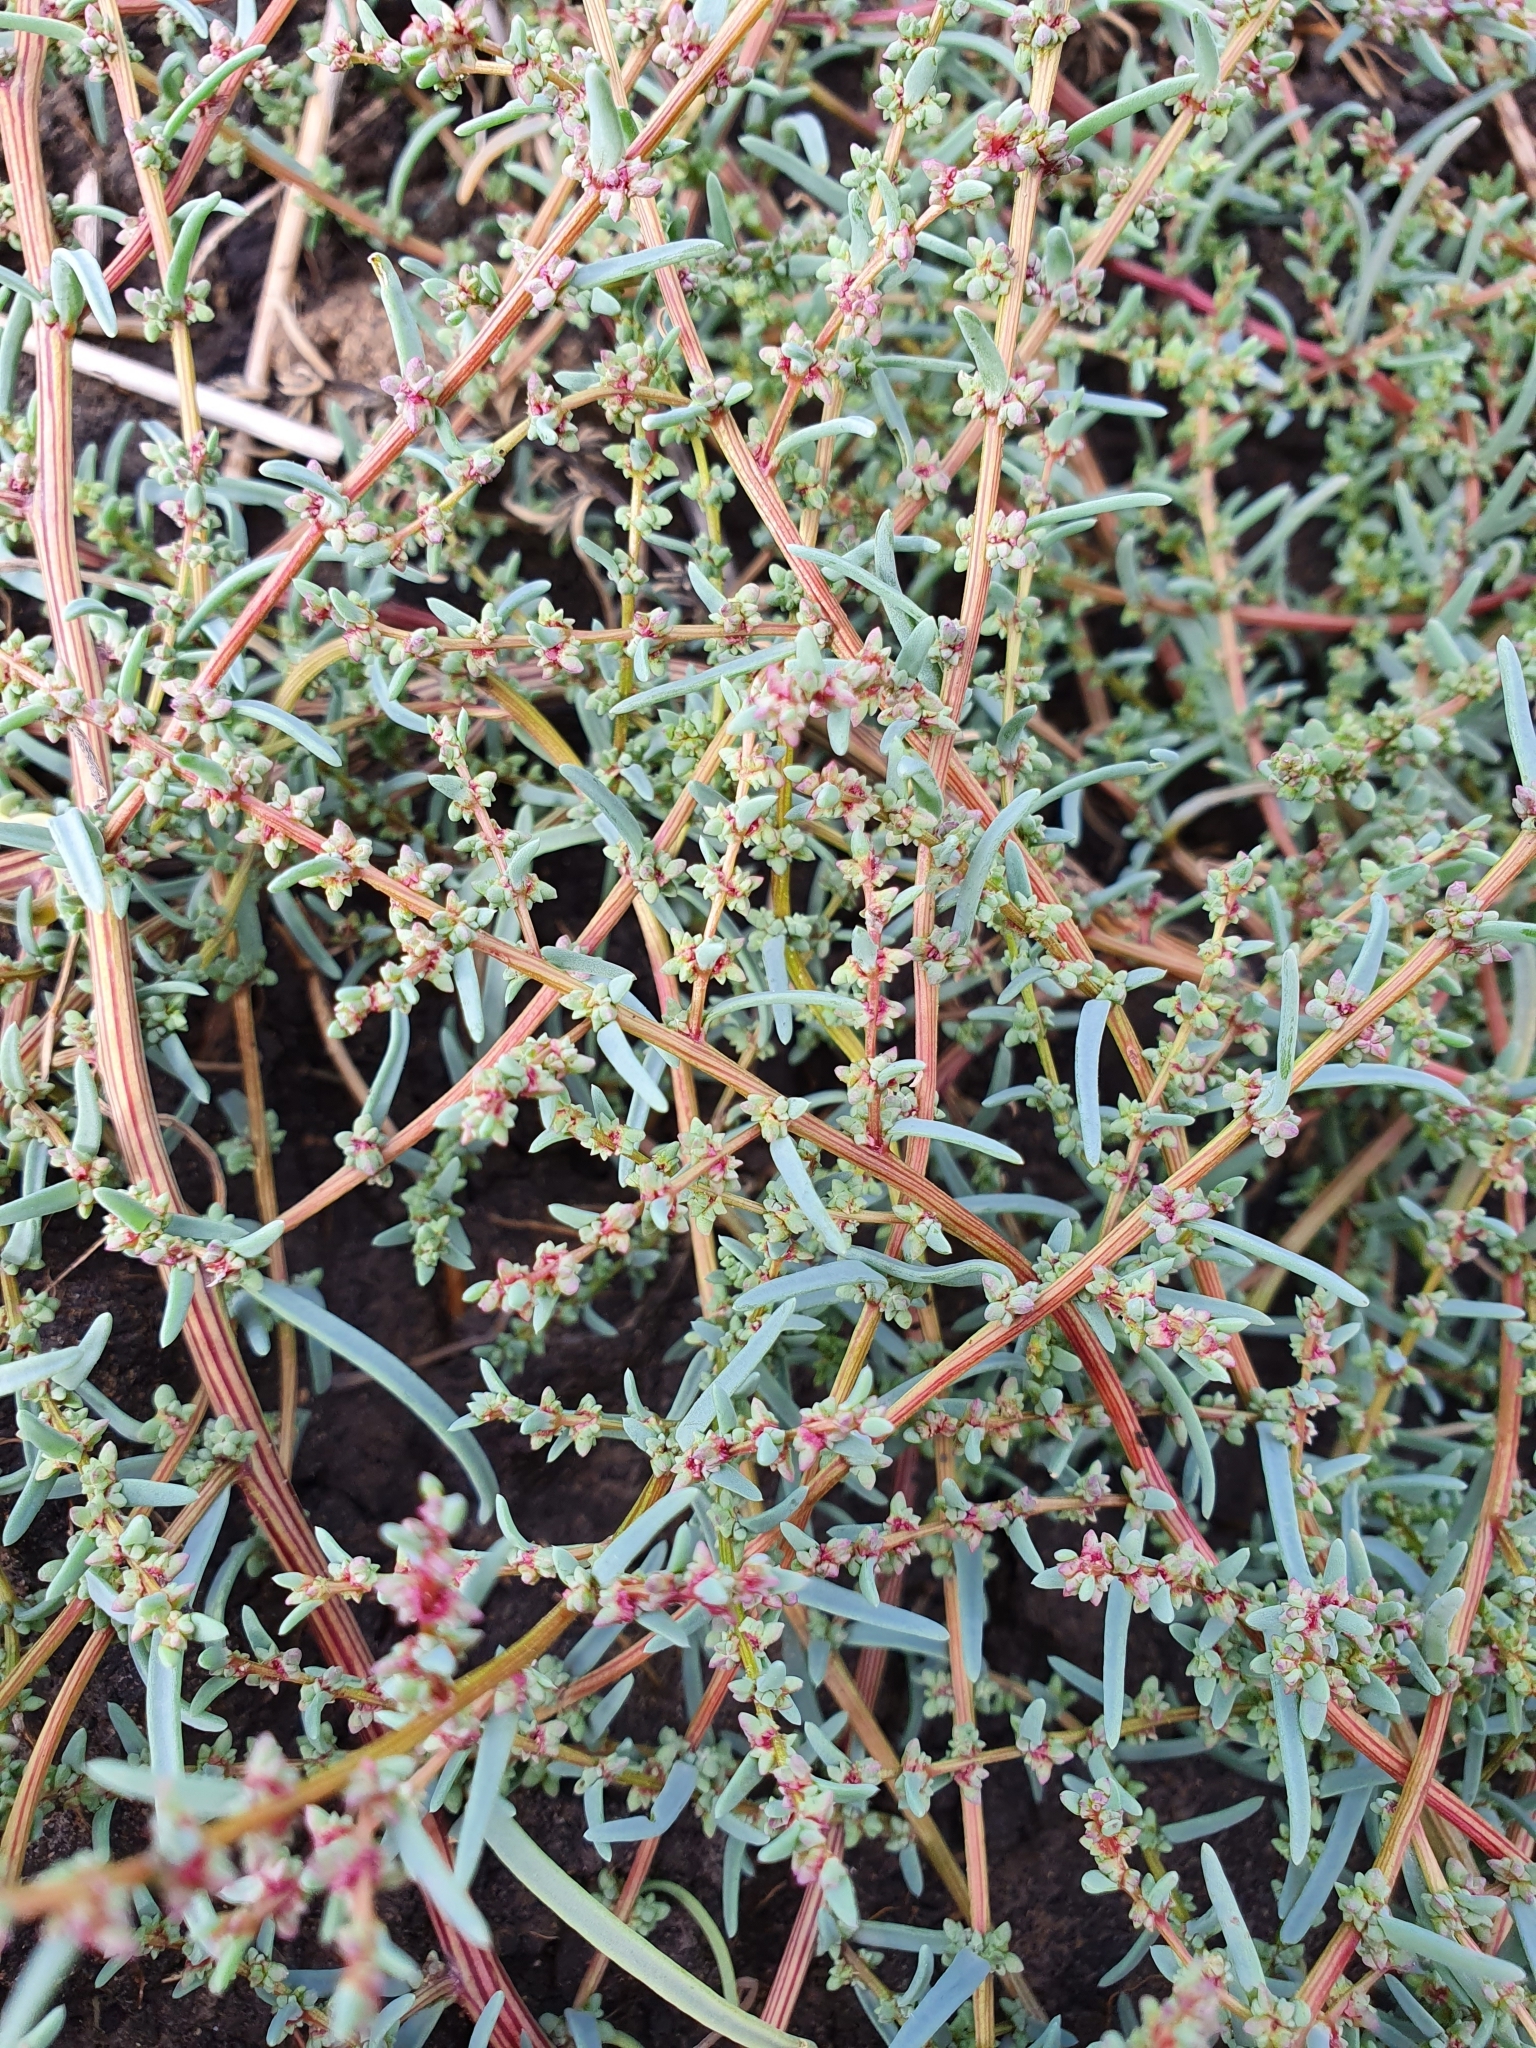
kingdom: Plantae
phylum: Tracheophyta
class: Magnoliopsida
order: Caryophyllales
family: Amaranthaceae
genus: Suaeda
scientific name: Suaeda corniculata
